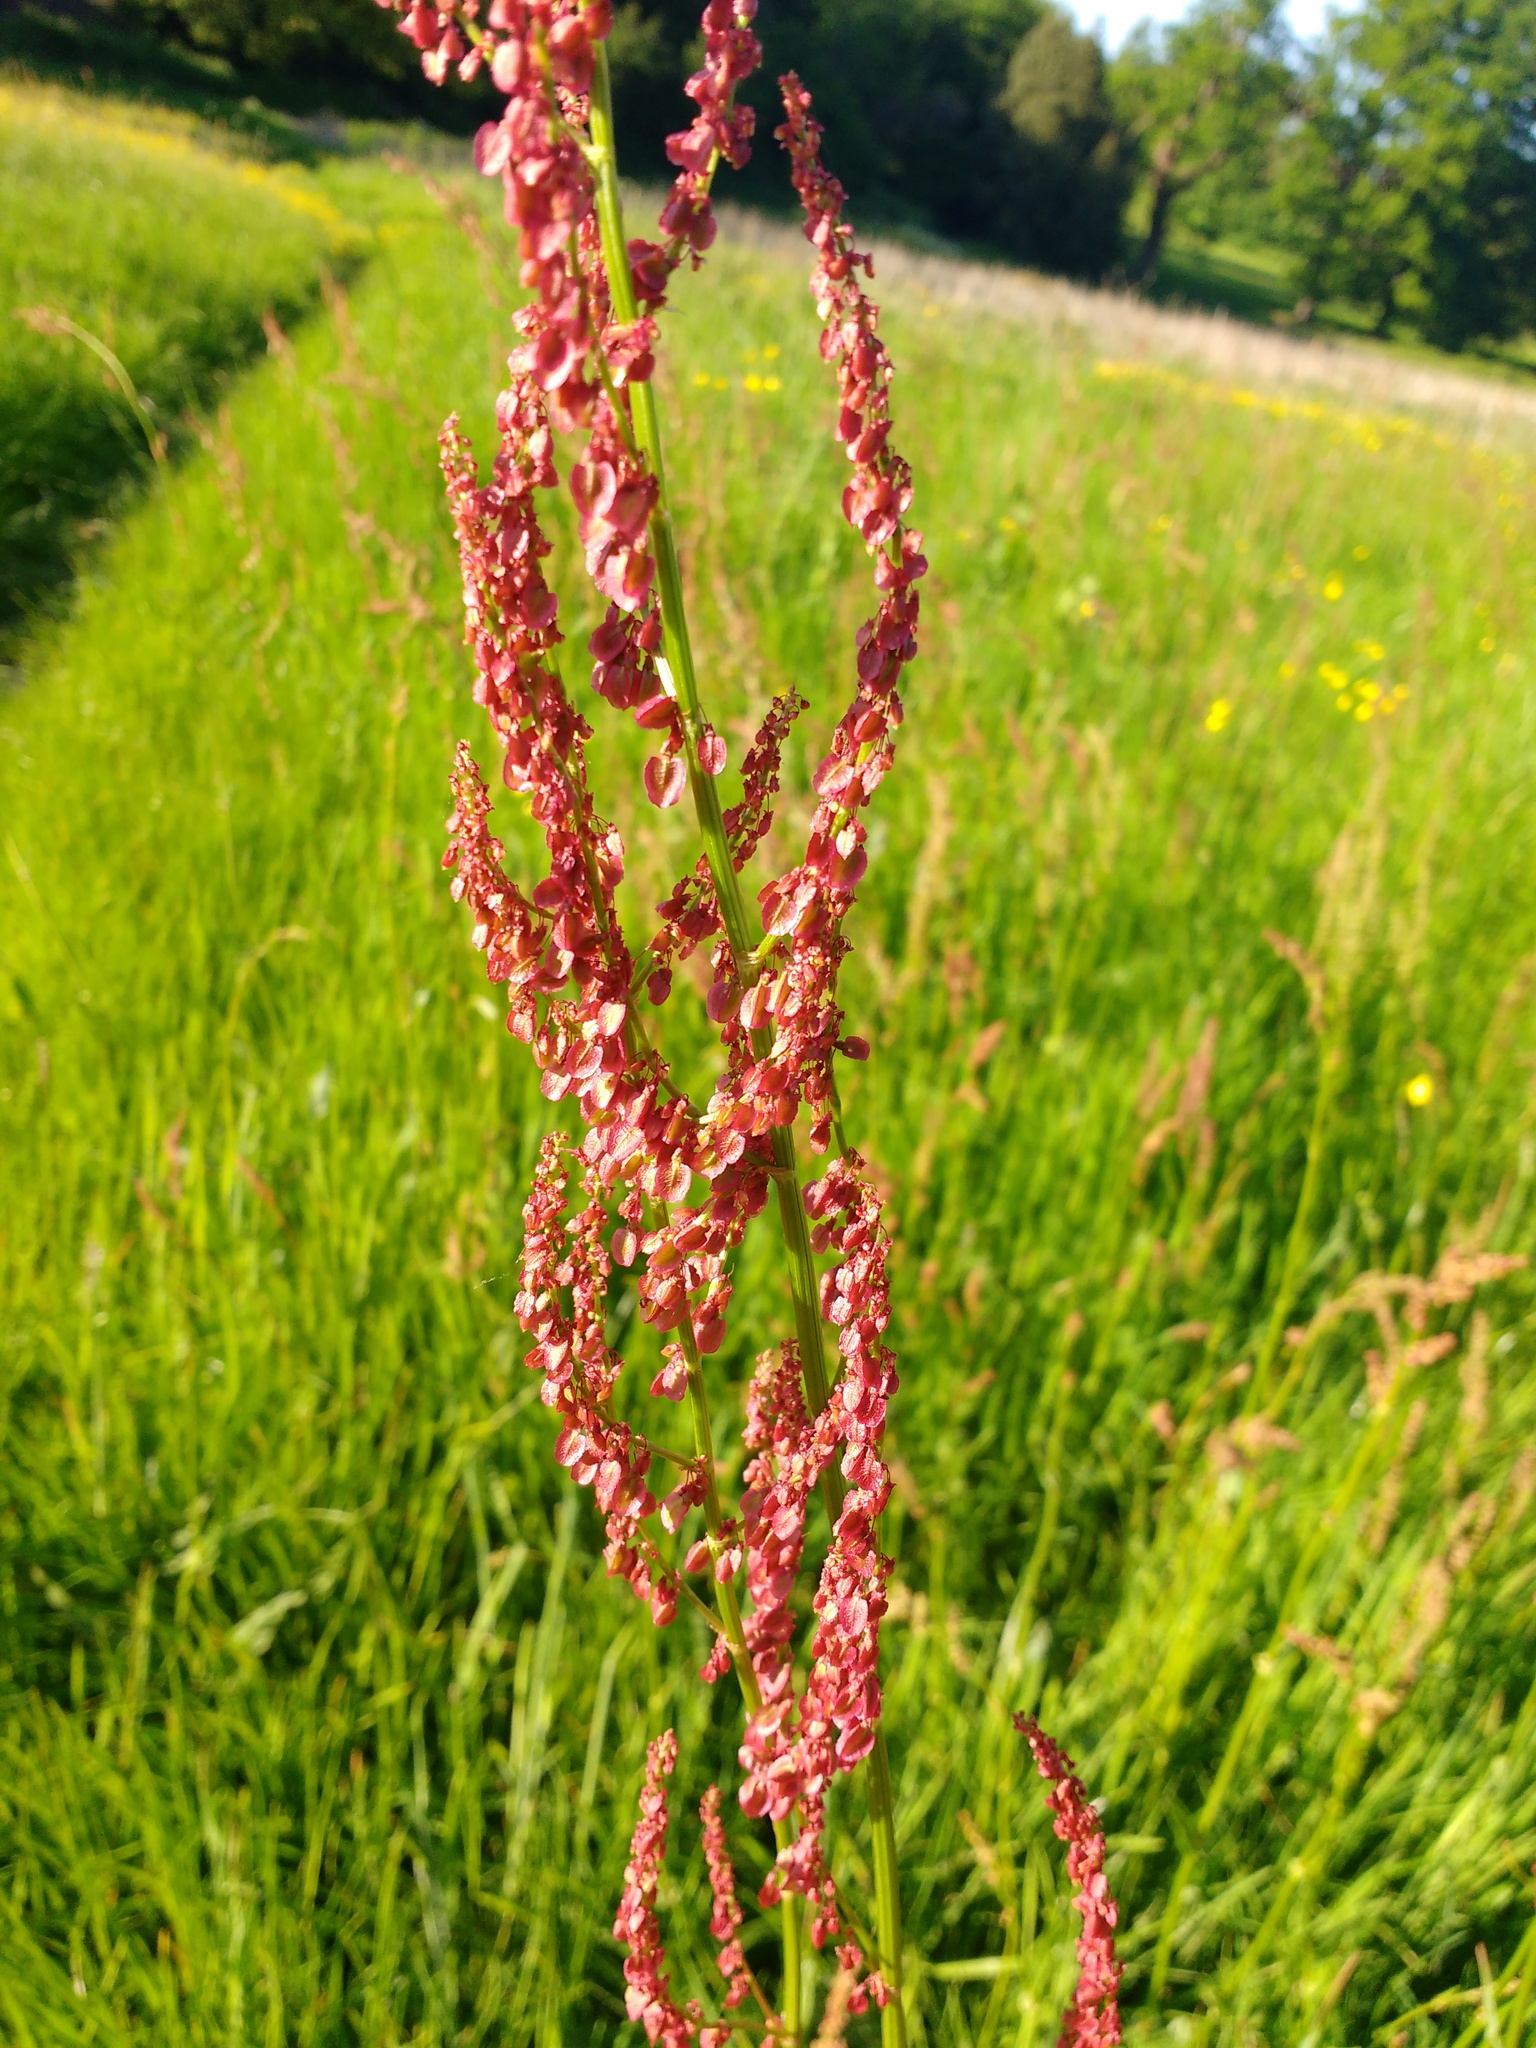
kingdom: Plantae
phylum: Tracheophyta
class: Magnoliopsida
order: Caryophyllales
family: Polygonaceae
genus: Rumex
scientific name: Rumex acetosa
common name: Garden sorrel
